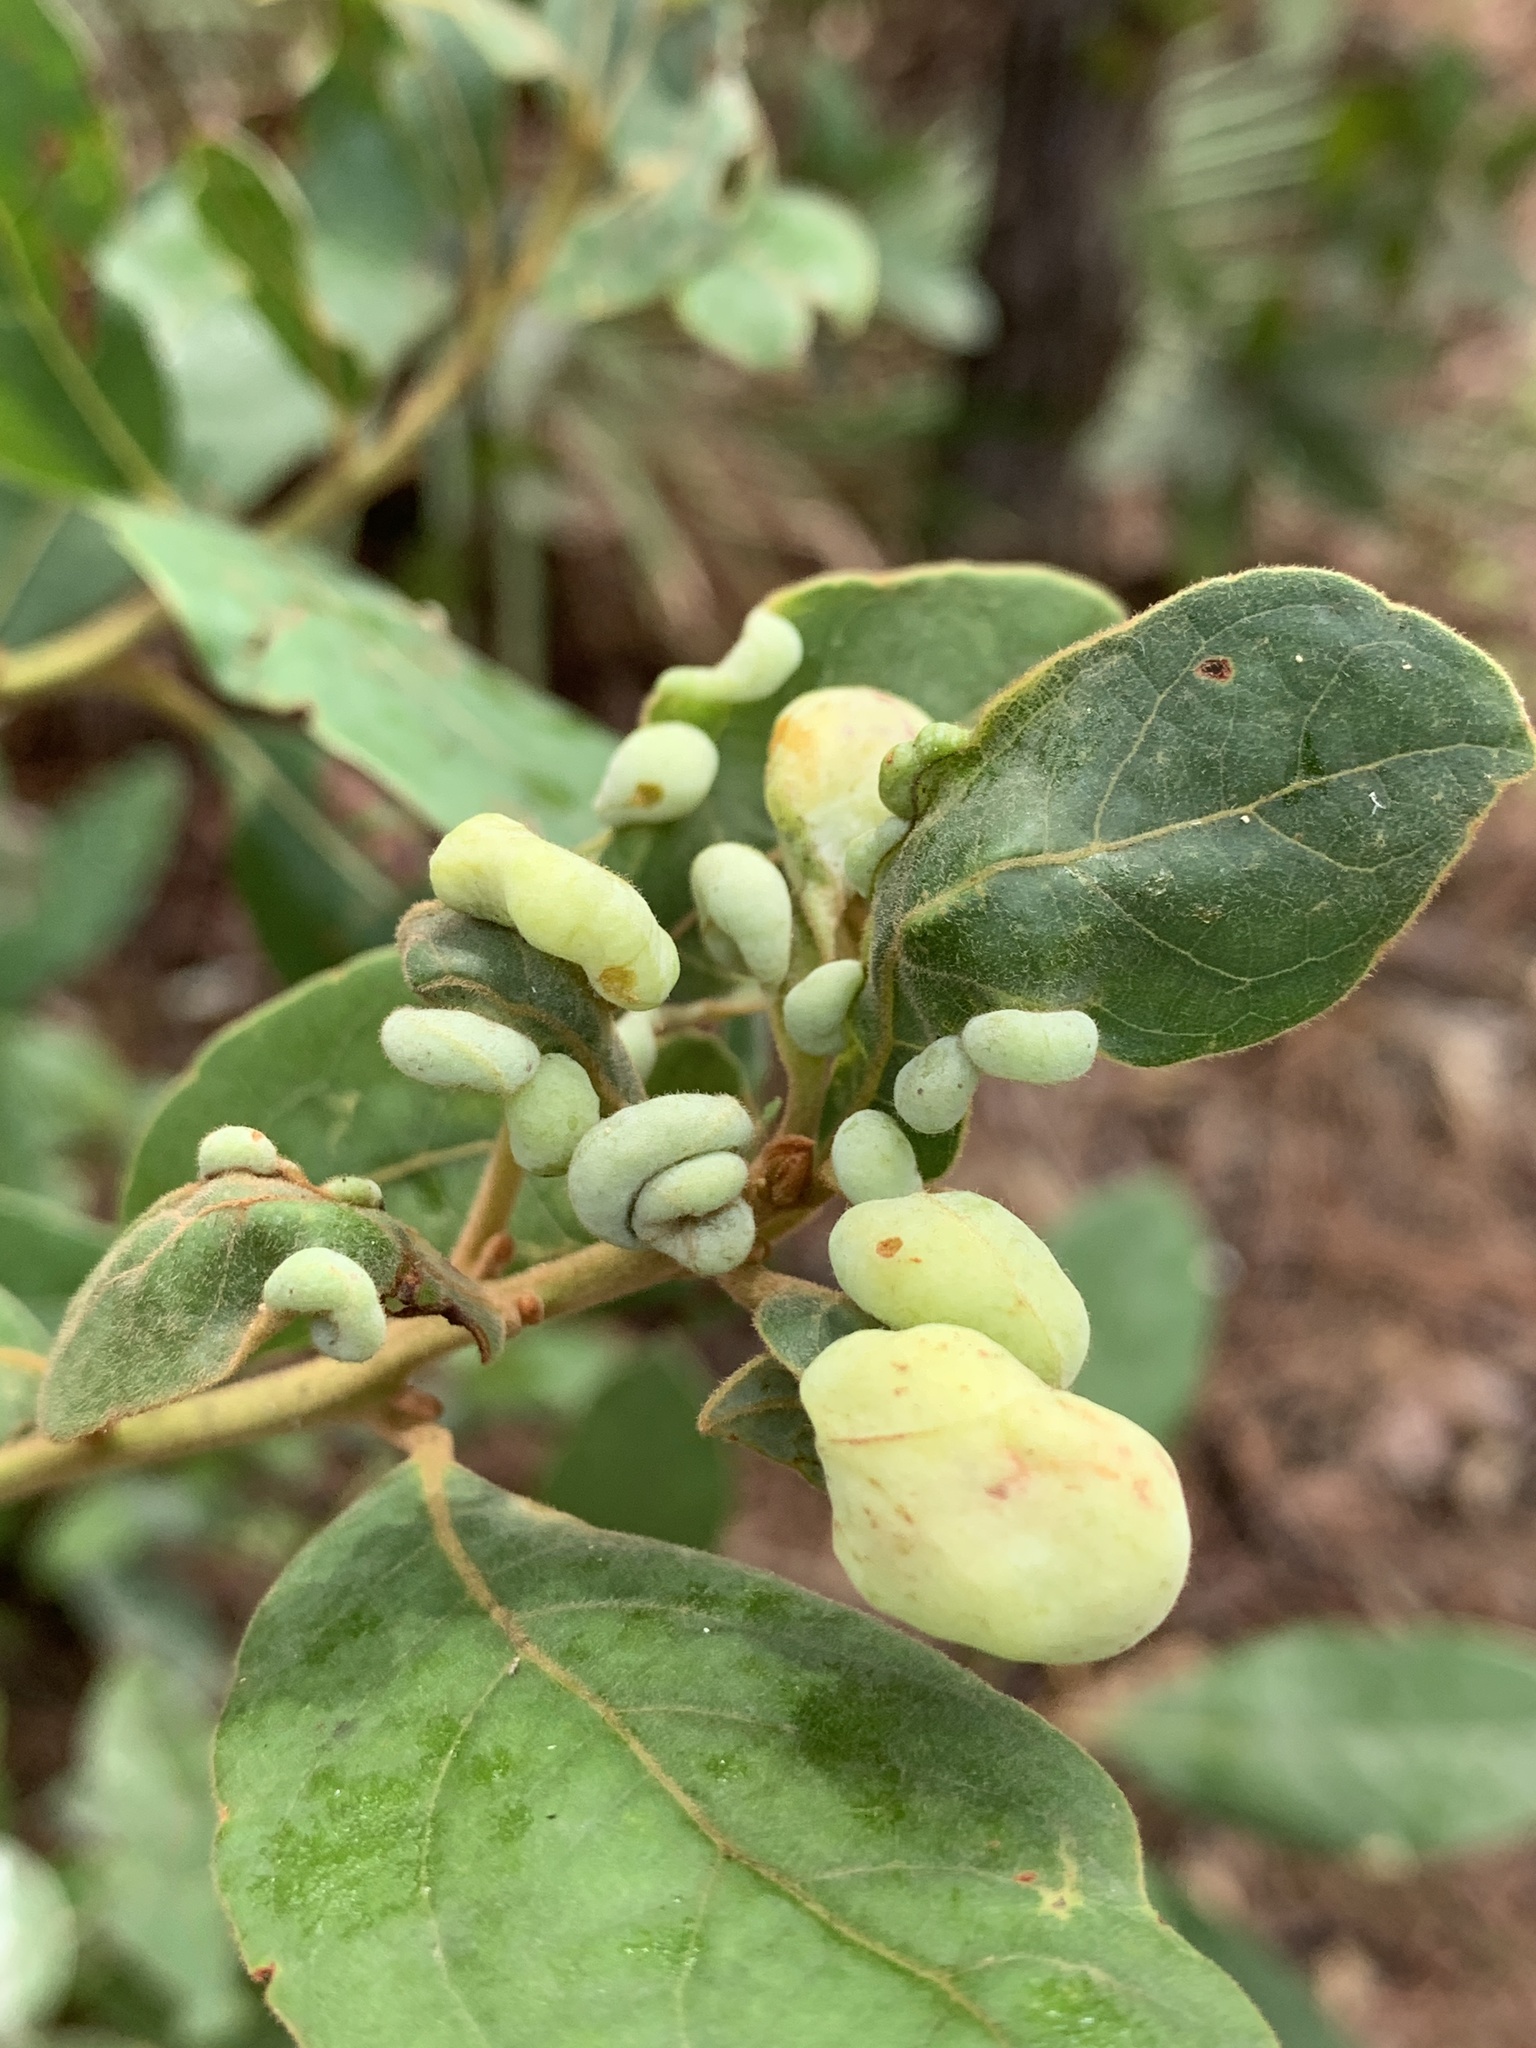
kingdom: Animalia
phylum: Arthropoda
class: Insecta
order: Hemiptera
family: Triozidae
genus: Trioza
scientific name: Trioza magnoliae
